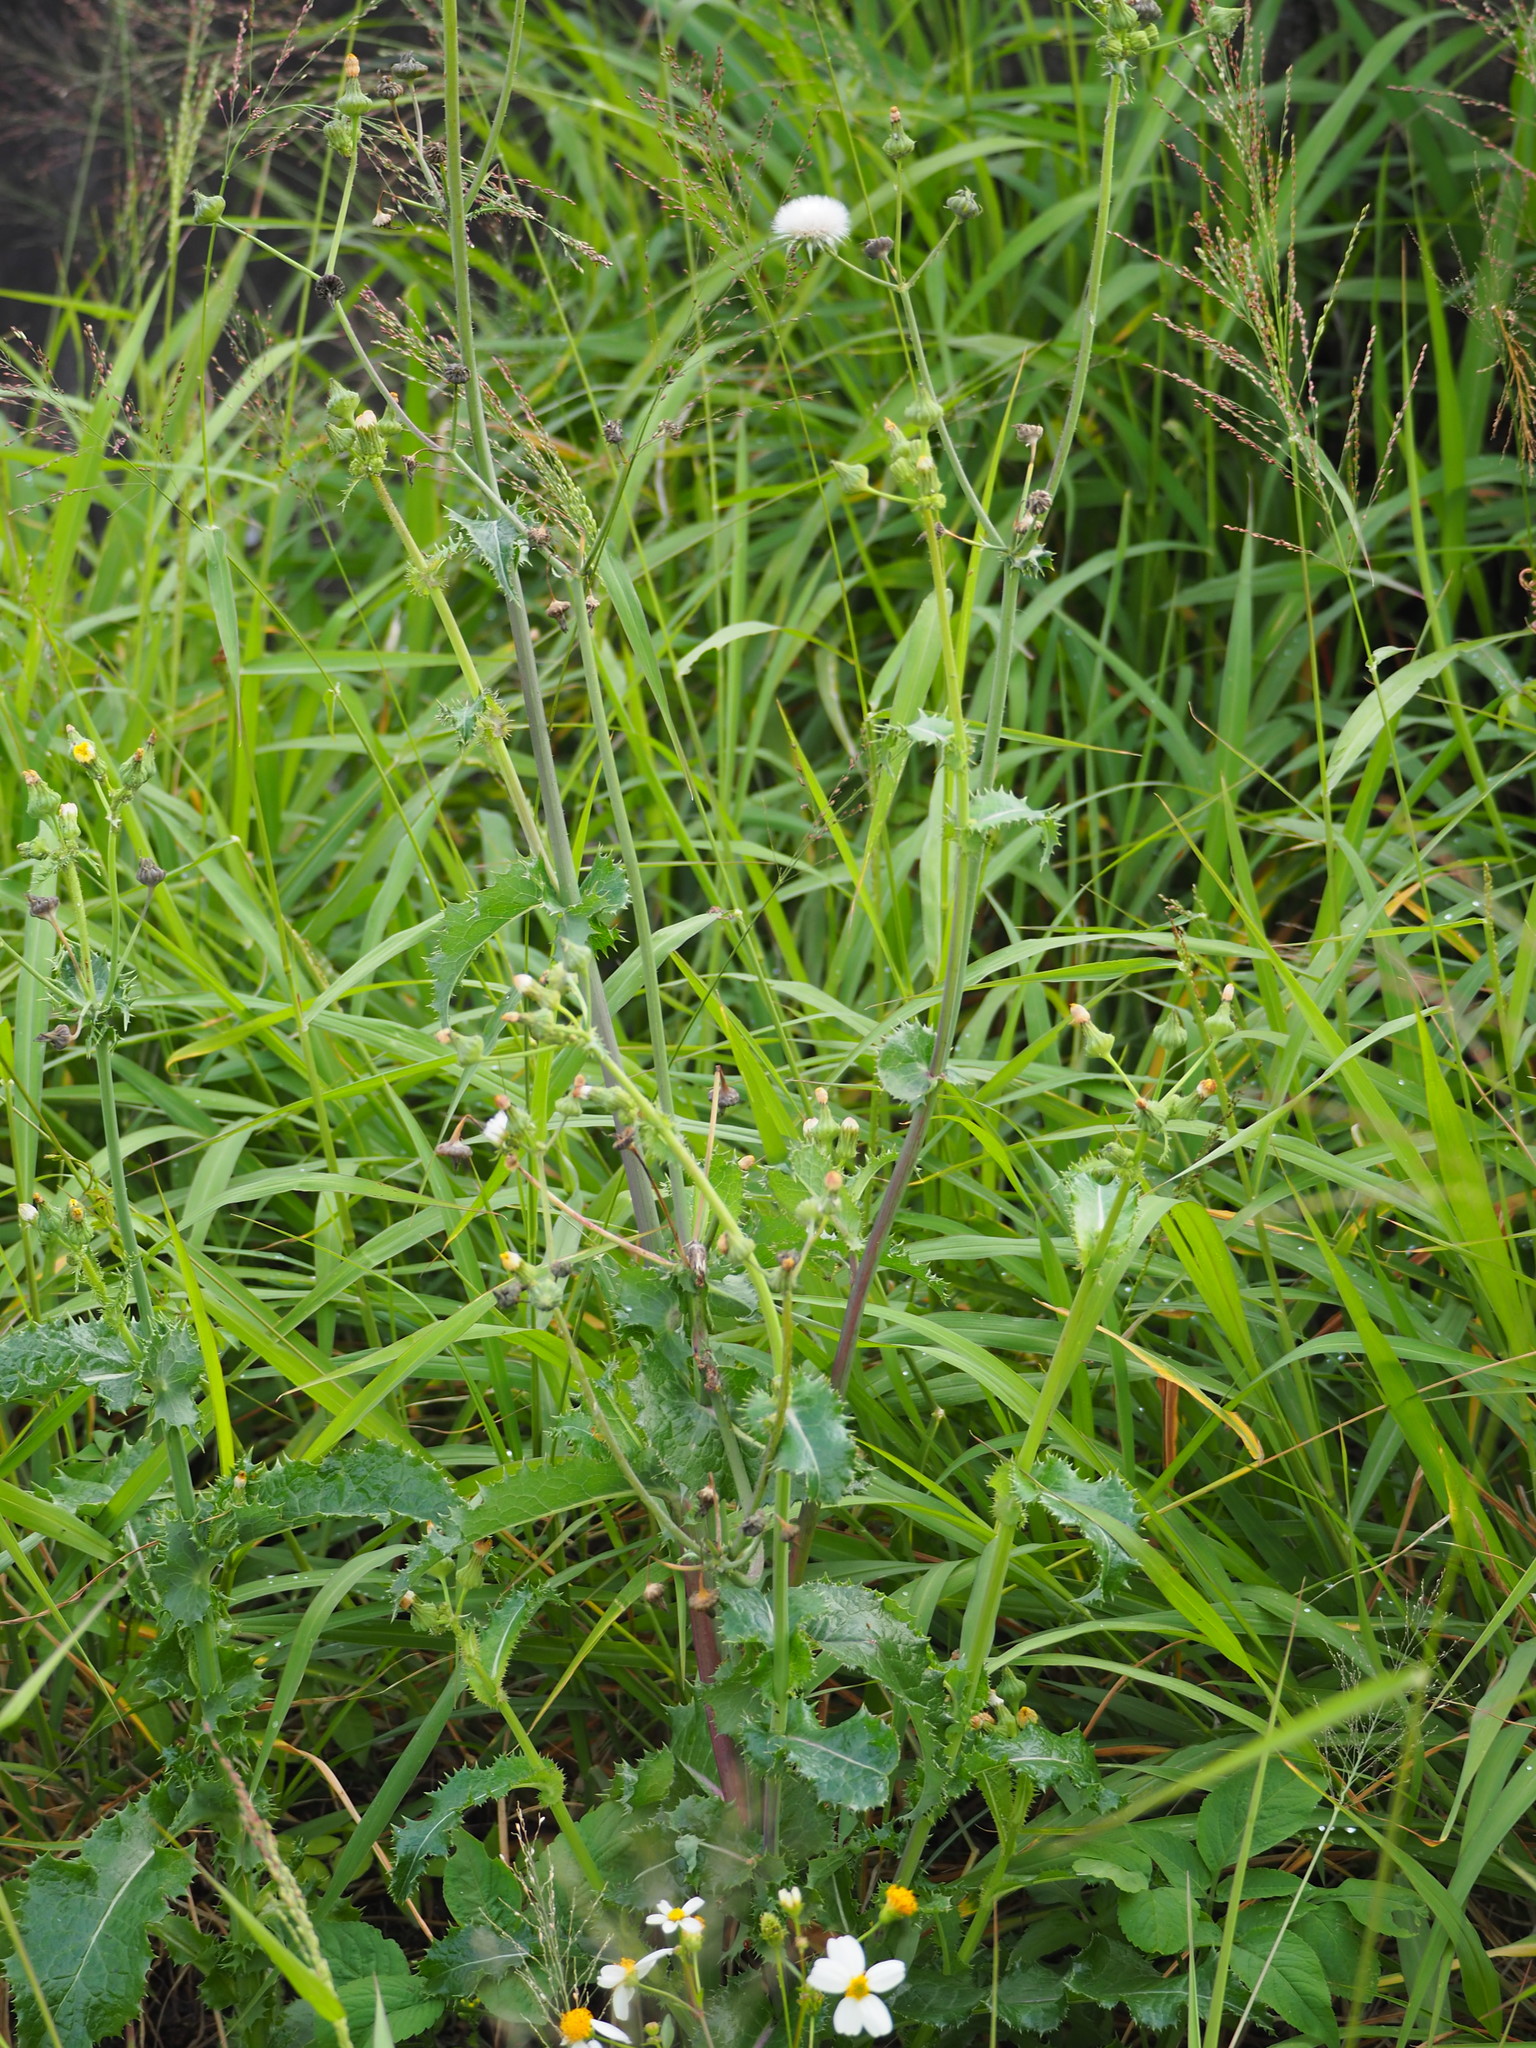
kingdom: Plantae
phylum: Tracheophyta
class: Magnoliopsida
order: Asterales
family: Asteraceae
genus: Sonchus
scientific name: Sonchus oleraceus
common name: Common sowthistle
